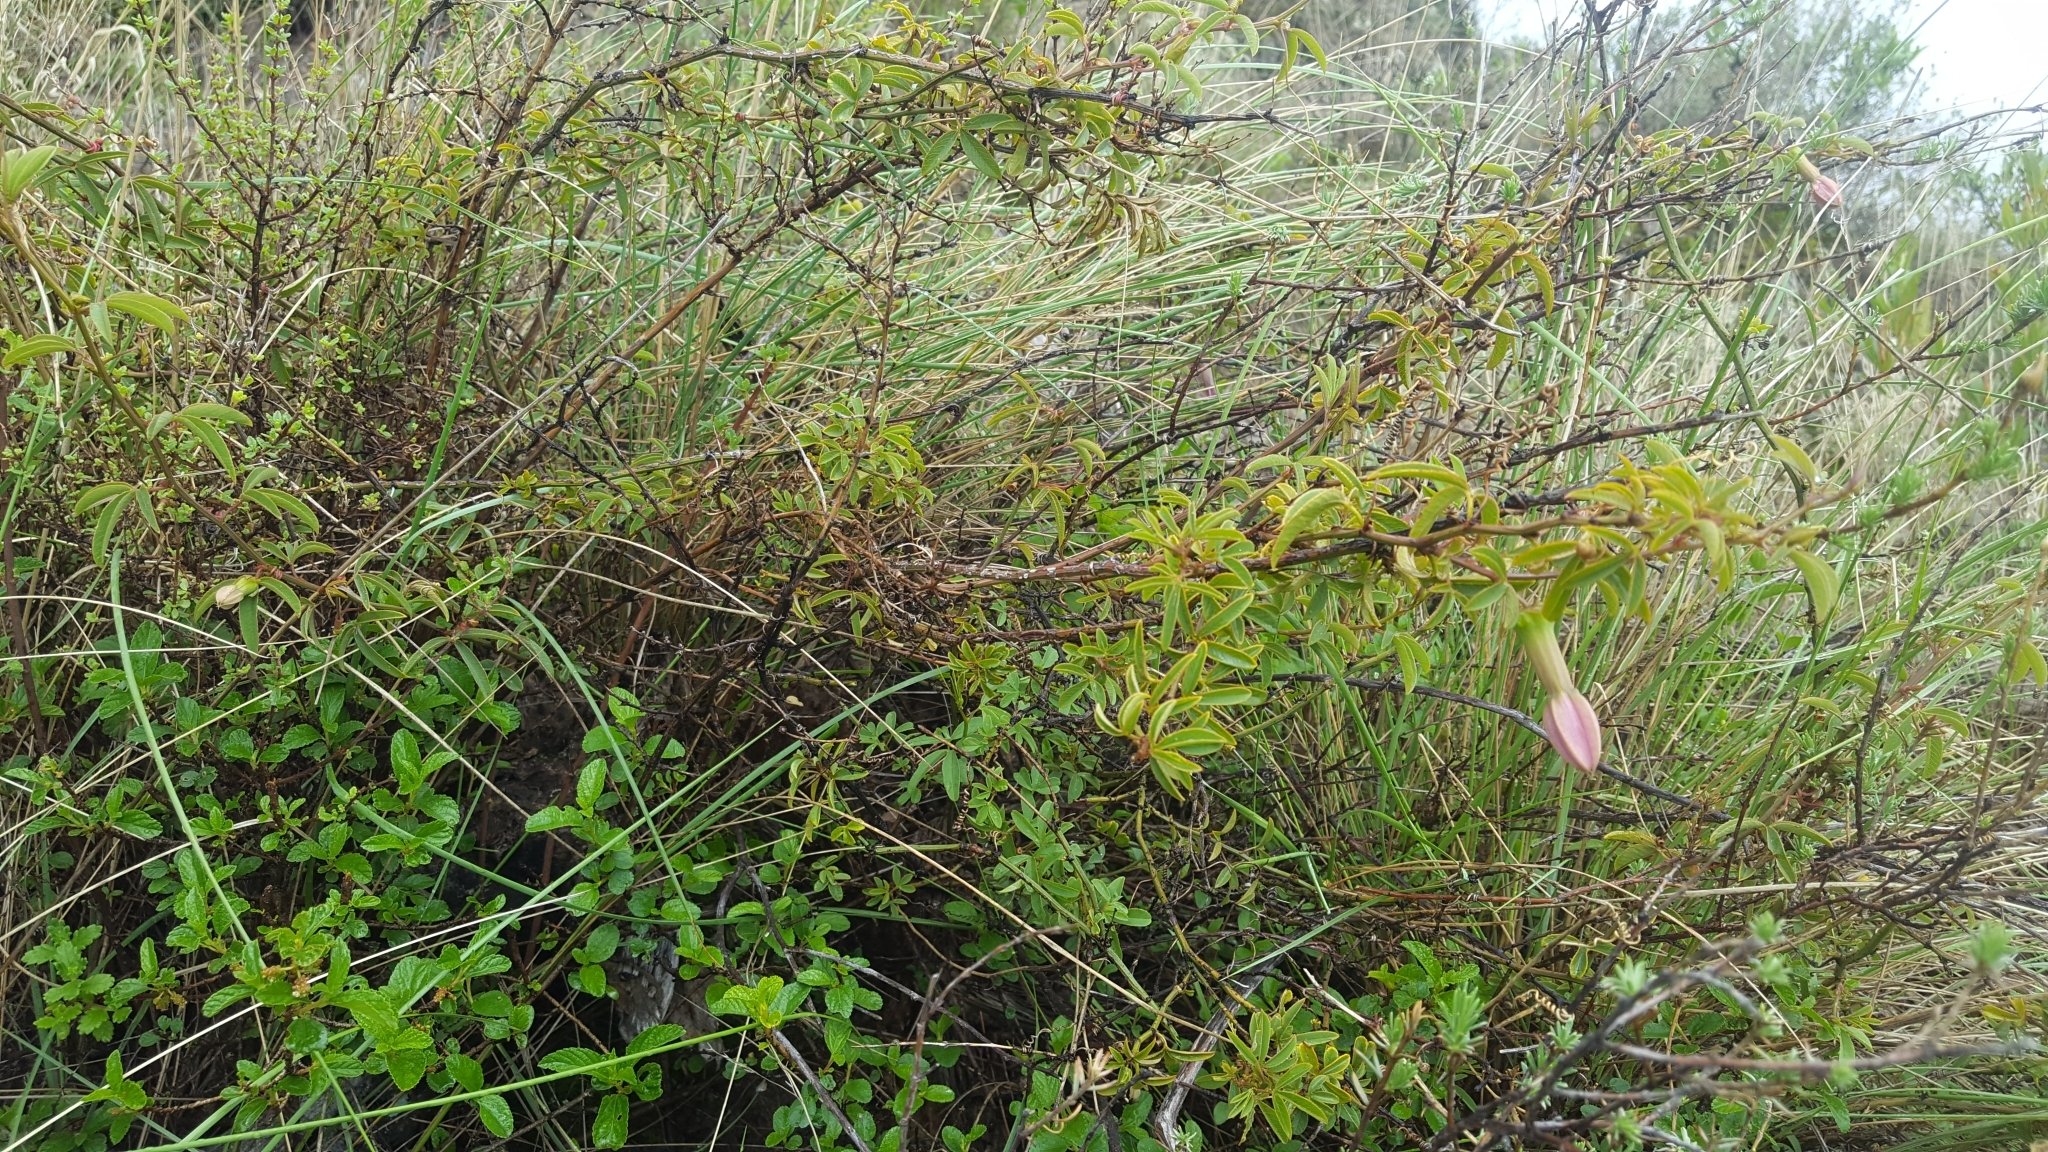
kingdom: Plantae
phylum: Tracheophyta
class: Magnoliopsida
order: Malpighiales
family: Passifloraceae
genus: Passiflora
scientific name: Passiflora gracilens
